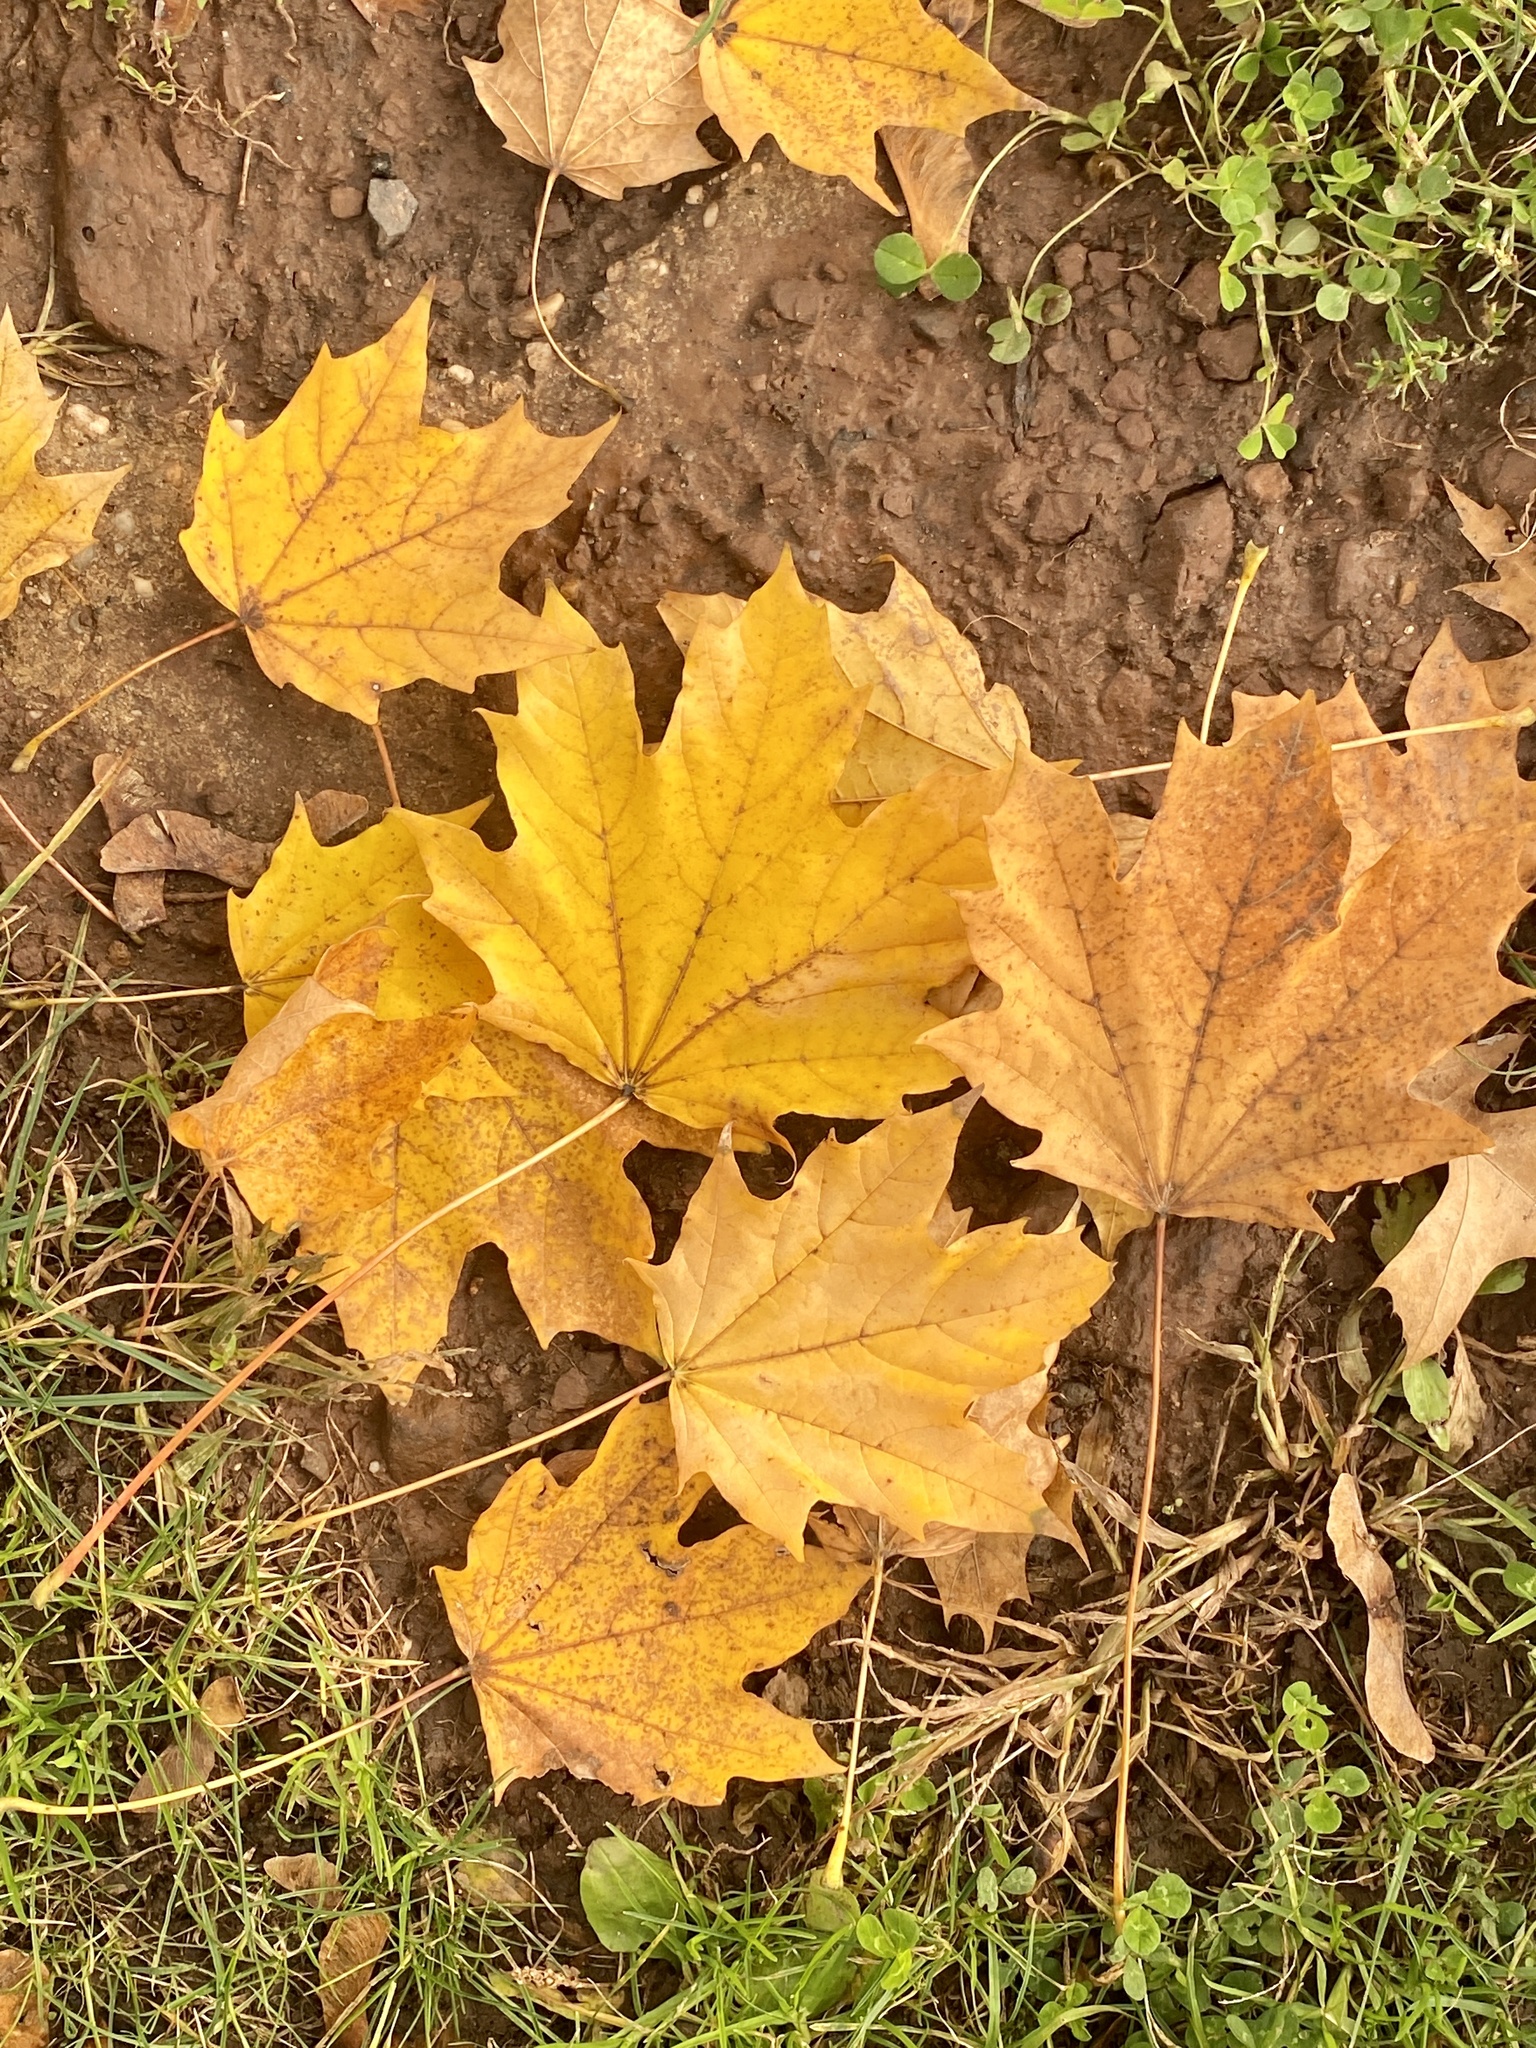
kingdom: Plantae
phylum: Tracheophyta
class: Magnoliopsida
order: Sapindales
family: Sapindaceae
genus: Acer
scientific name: Acer platanoides
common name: Norway maple
